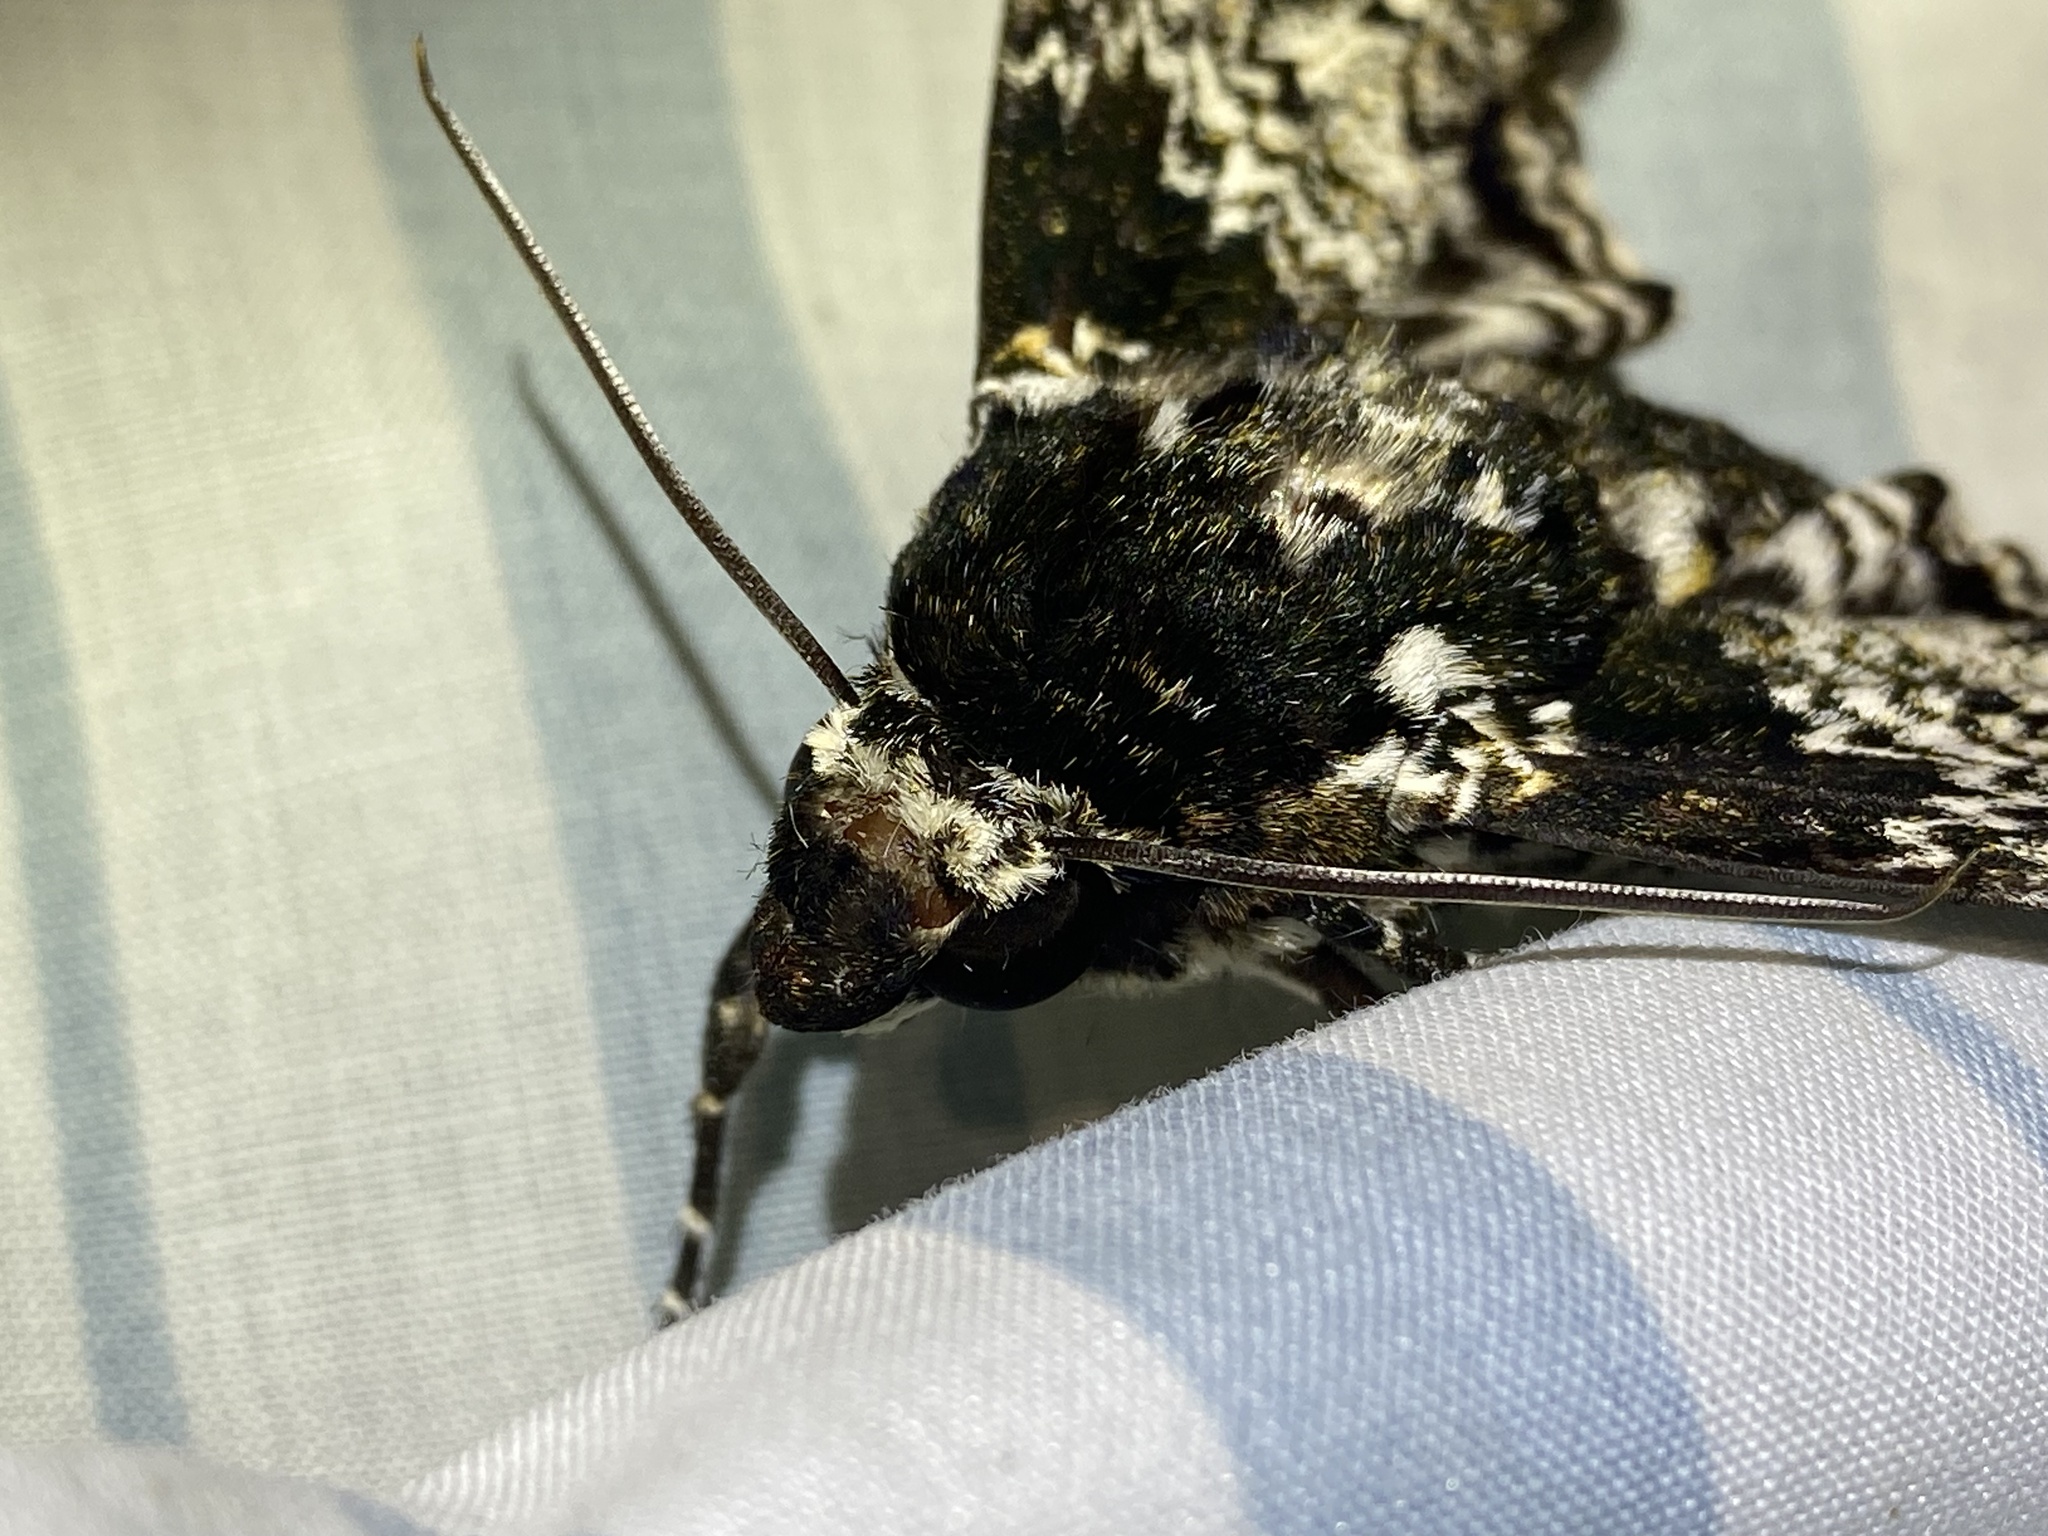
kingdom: Animalia
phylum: Arthropoda
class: Insecta
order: Lepidoptera
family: Sphingidae
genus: Manduca
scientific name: Manduca rustica
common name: Rustic sphinx
